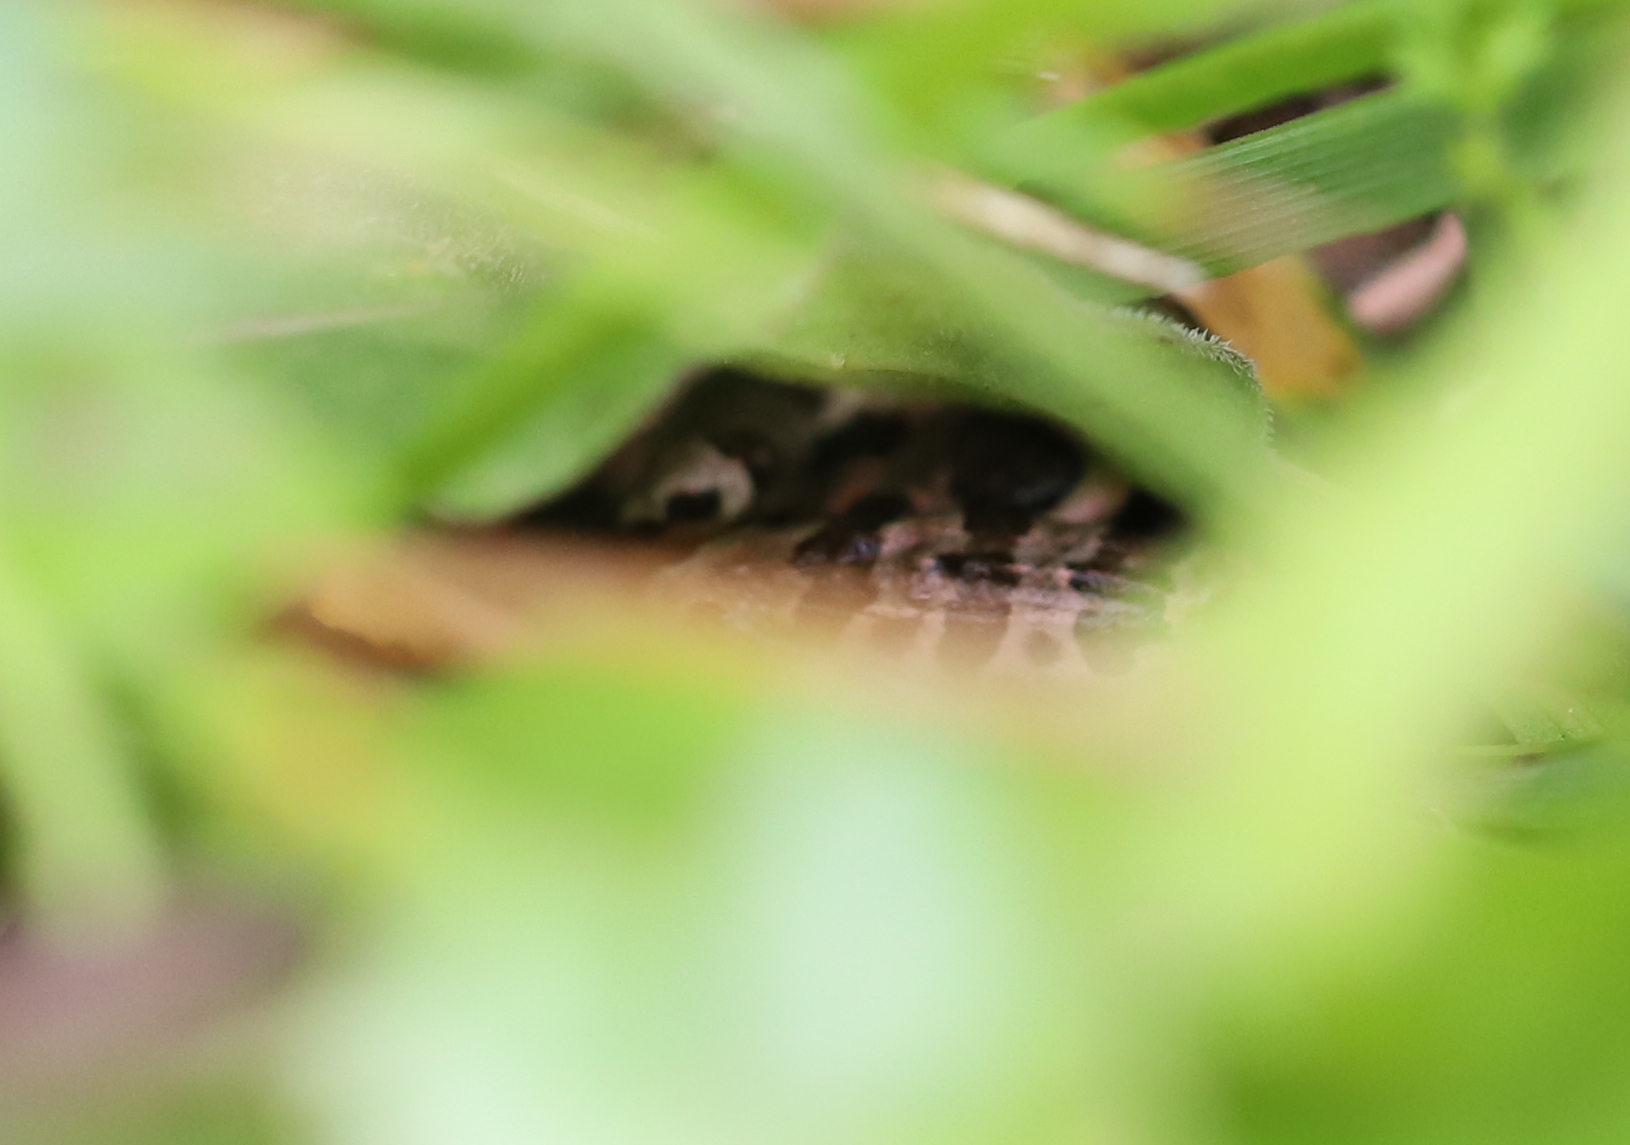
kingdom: Animalia
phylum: Chordata
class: Amphibia
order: Anura
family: Ranidae
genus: Lithobates
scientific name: Lithobates palustris
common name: Pickerel frog
